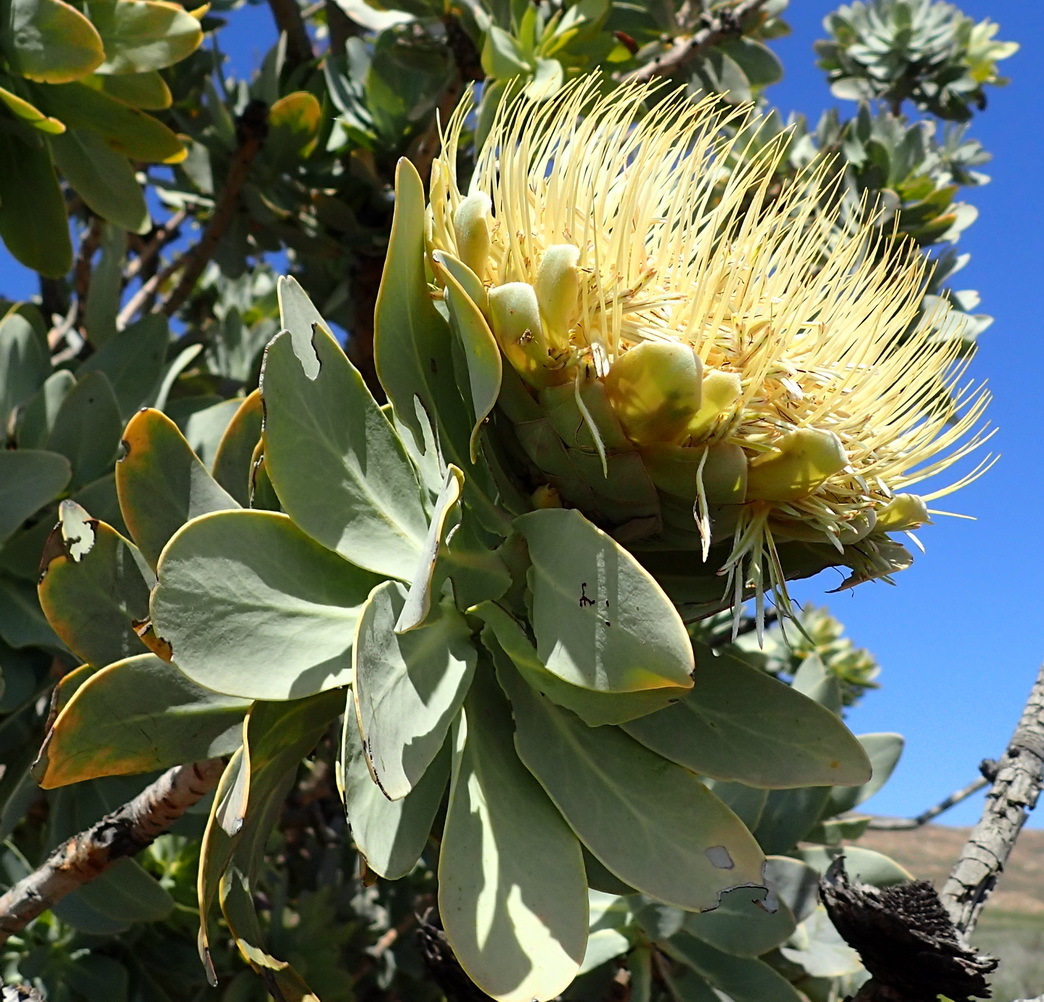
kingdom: Plantae
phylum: Tracheophyta
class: Magnoliopsida
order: Proteales
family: Proteaceae
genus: Protea
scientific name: Protea nitida
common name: Tree protea
